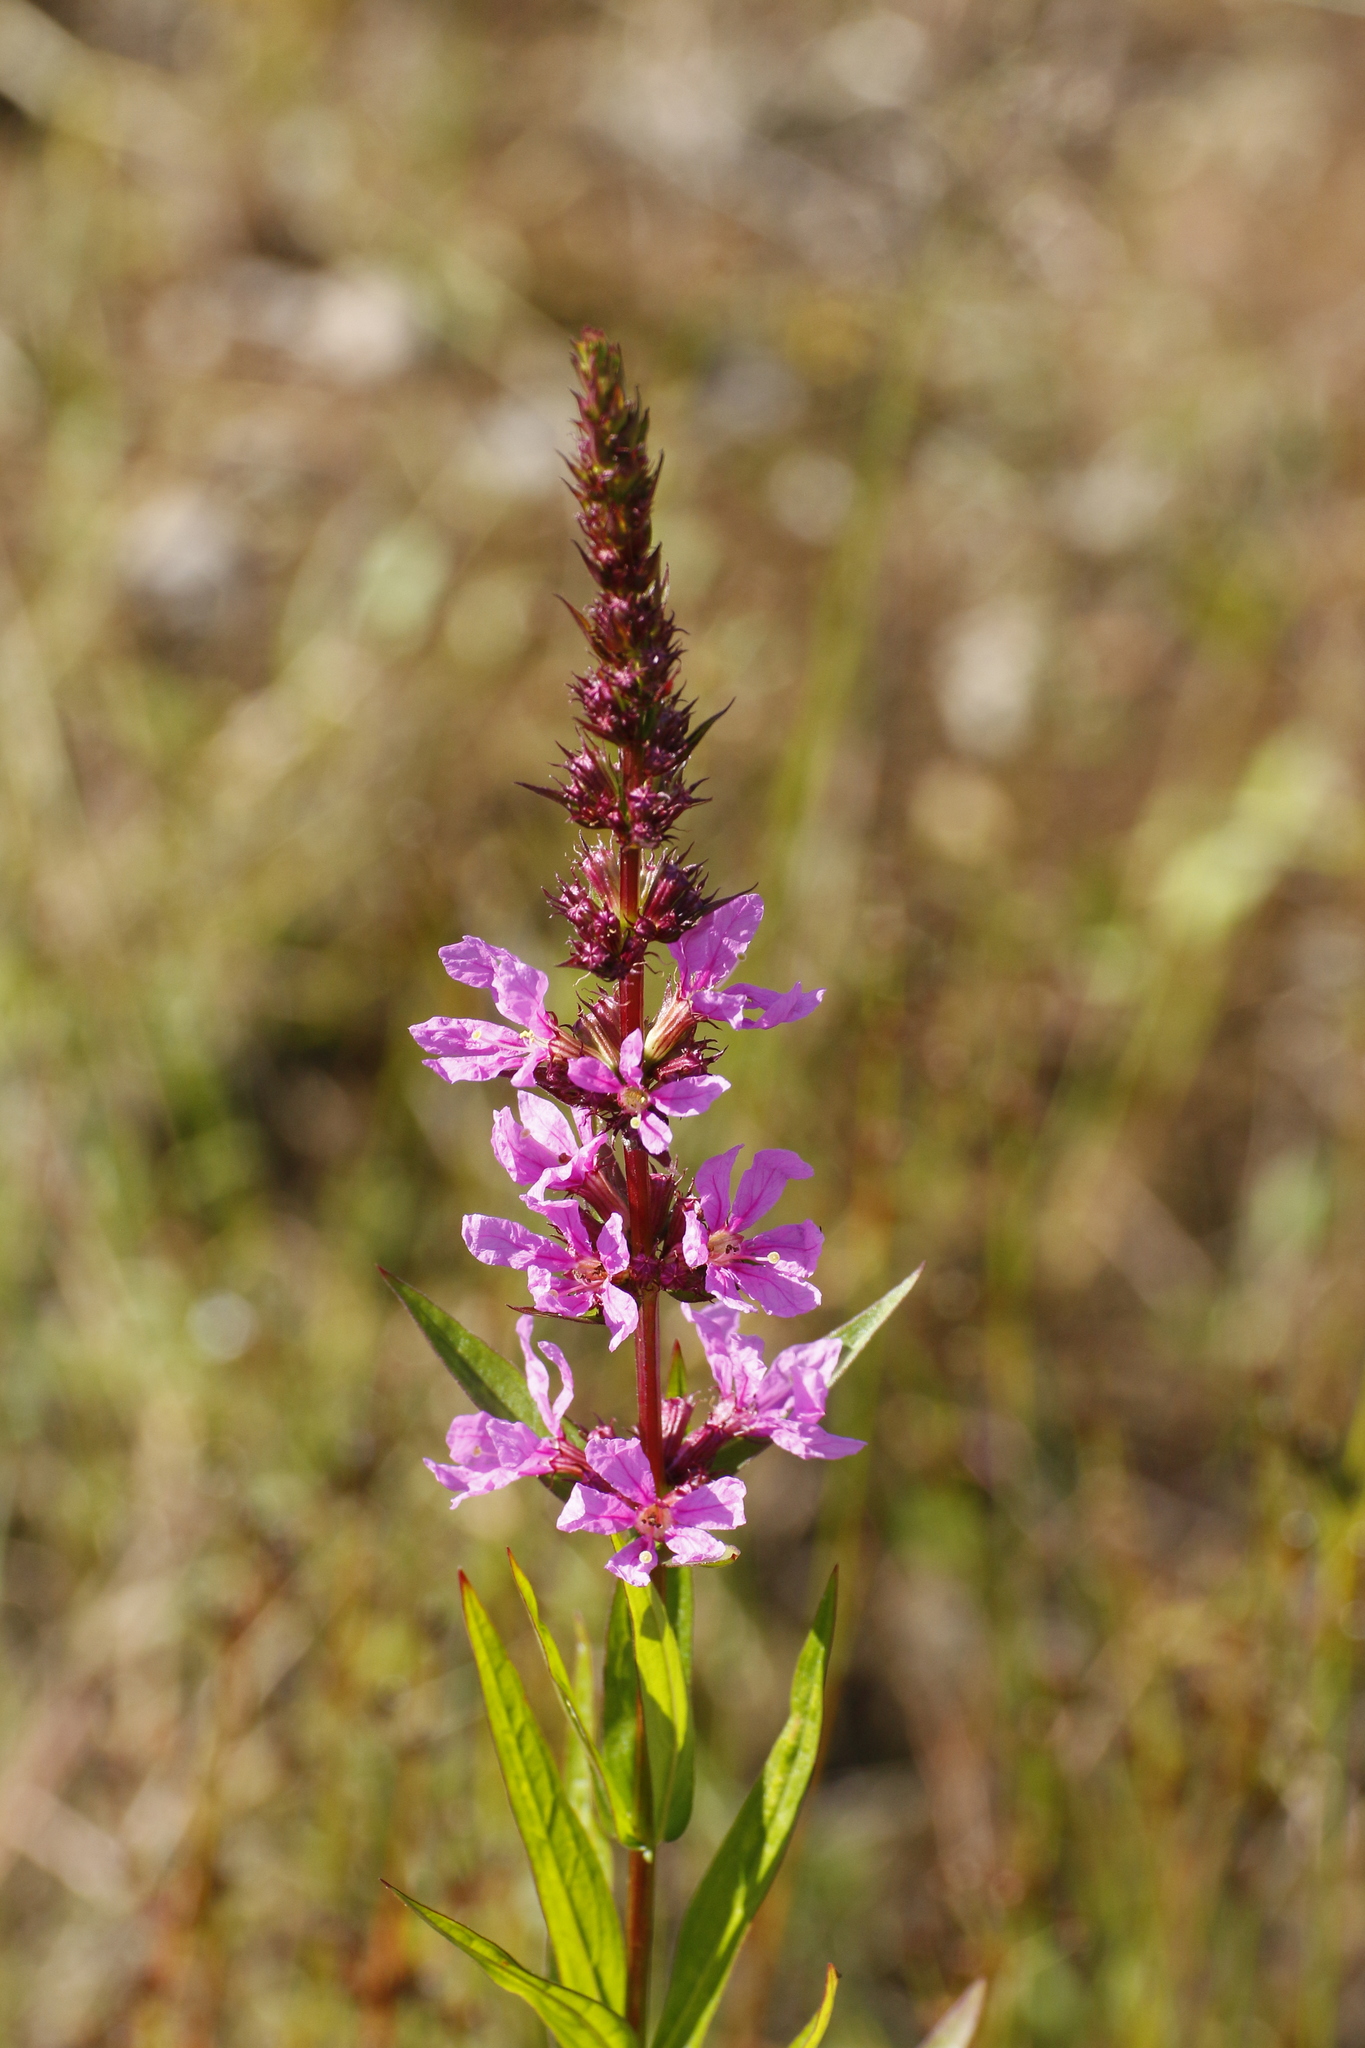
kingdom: Plantae
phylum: Tracheophyta
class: Magnoliopsida
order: Myrtales
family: Lythraceae
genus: Lythrum
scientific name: Lythrum salicaria
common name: Purple loosestrife
